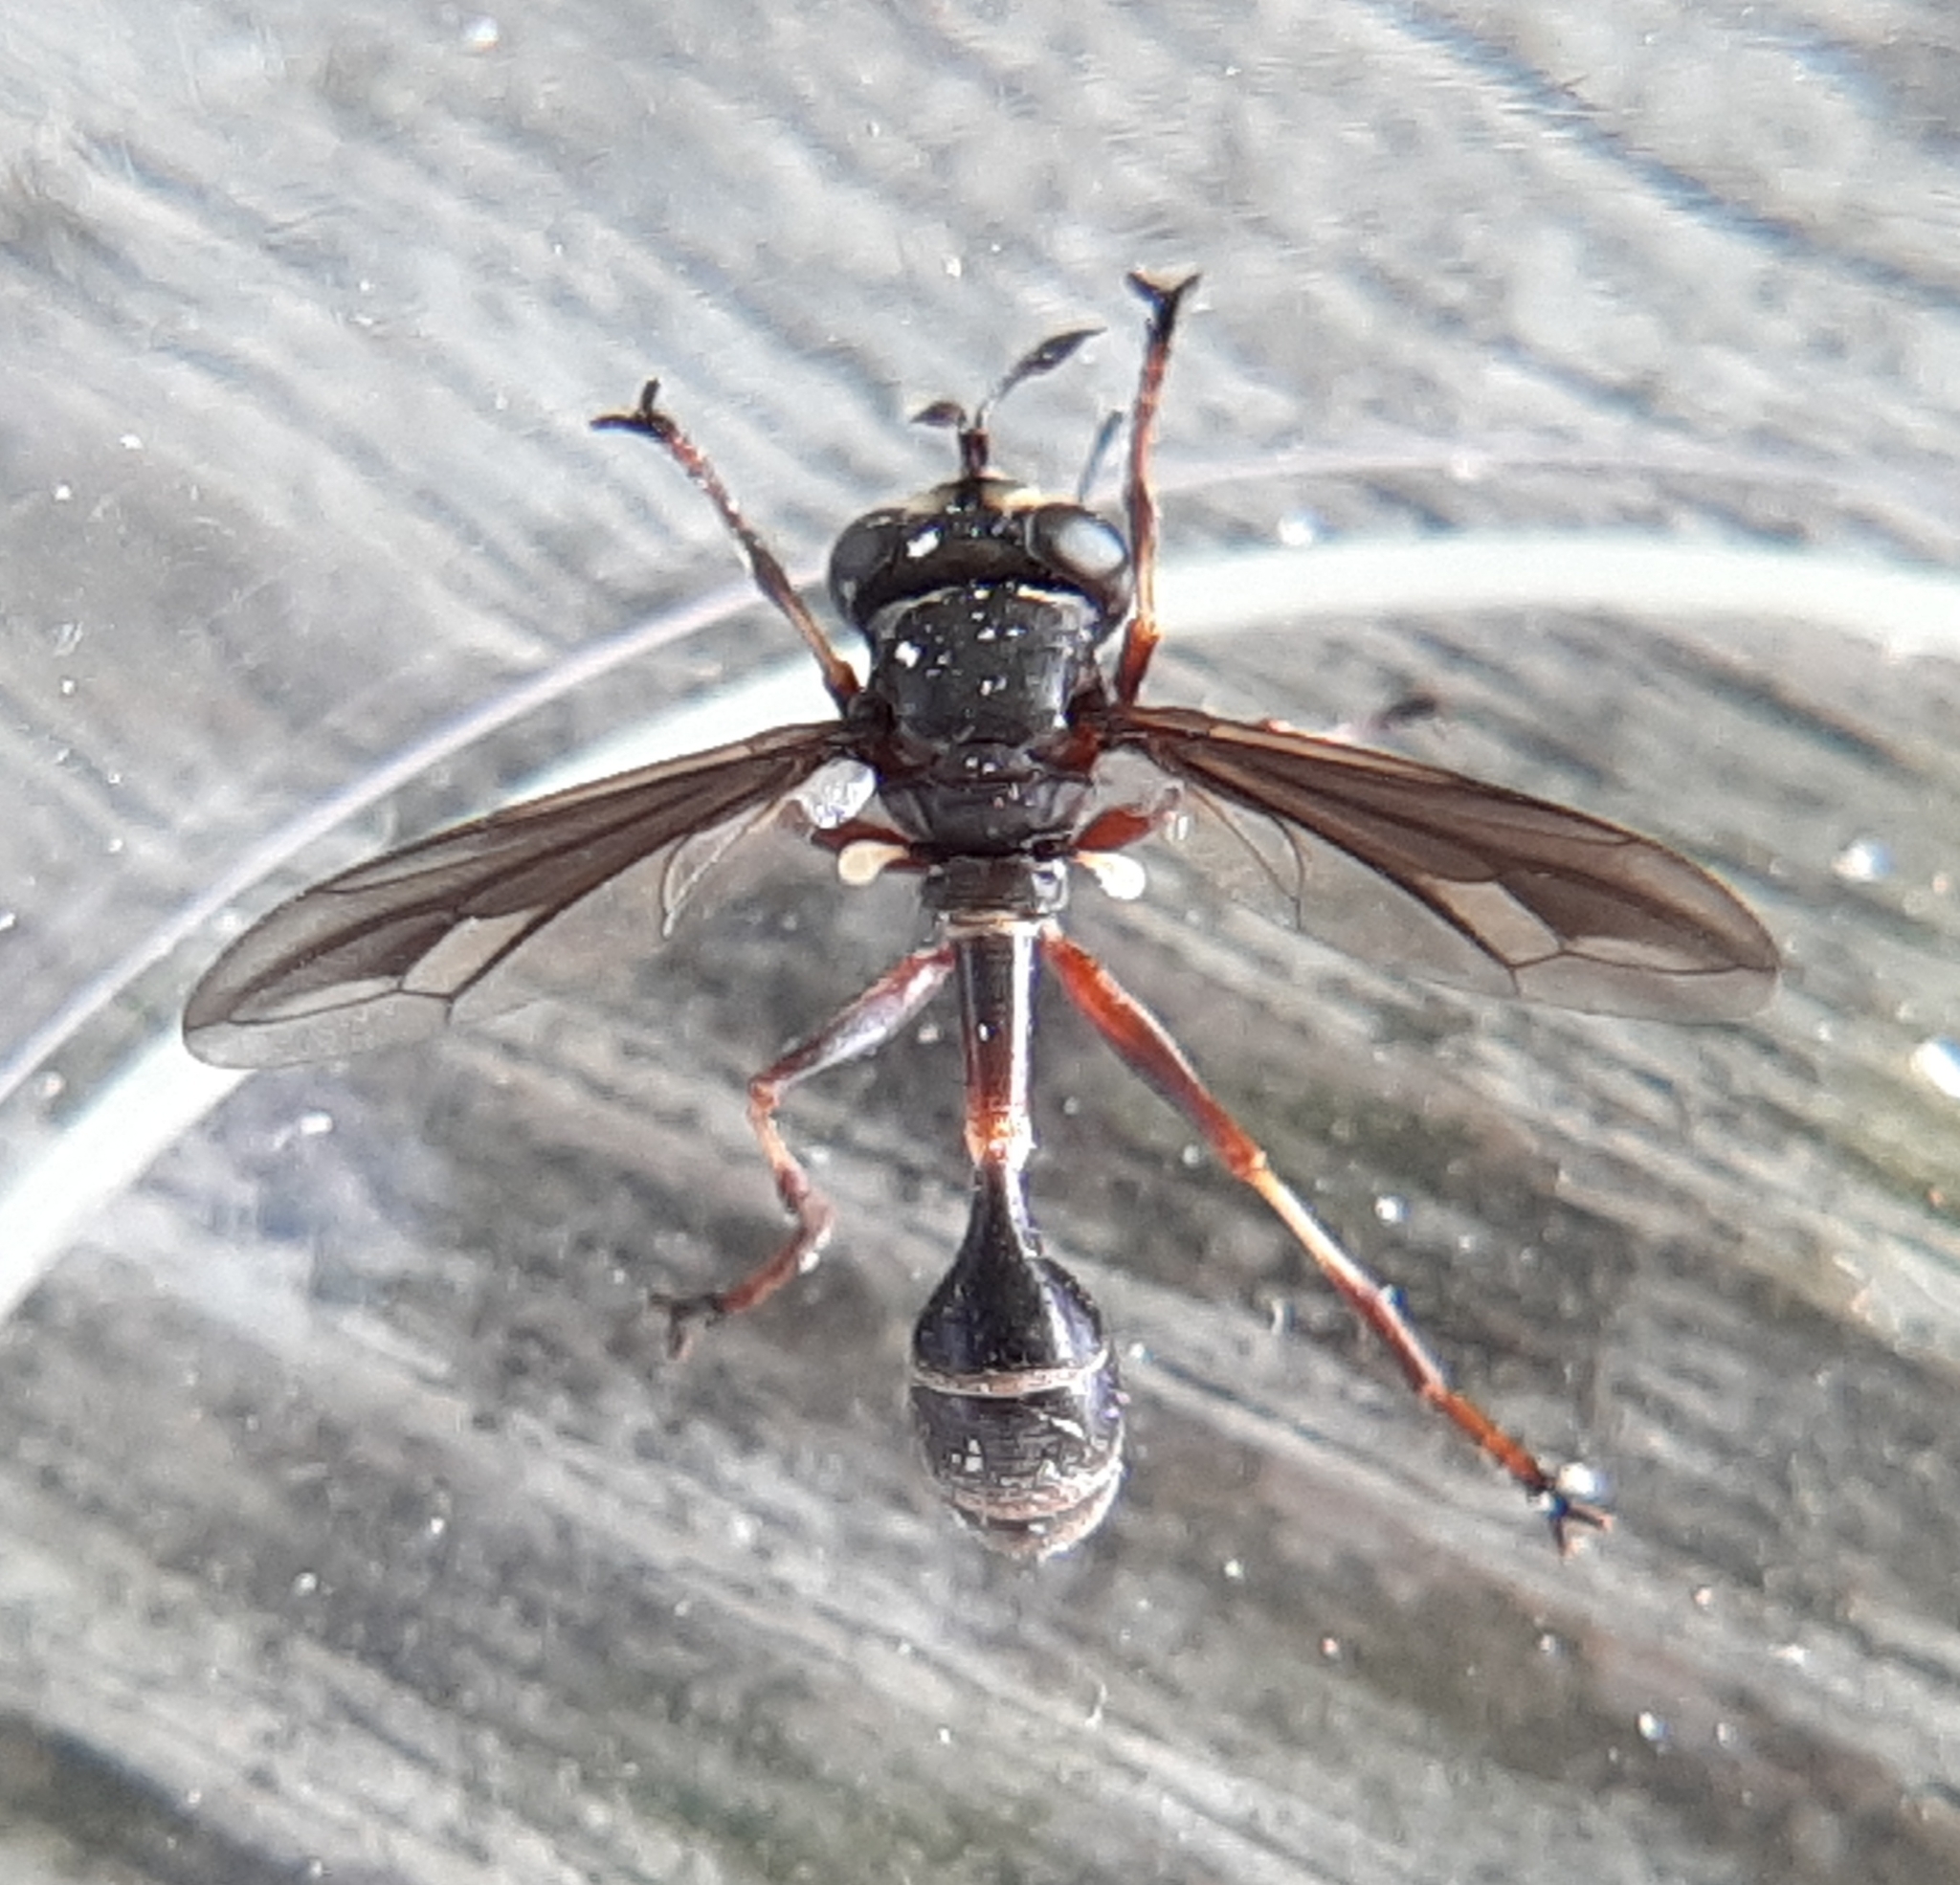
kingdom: Animalia
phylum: Arthropoda
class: Insecta
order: Diptera
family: Conopidae
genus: Physocephala
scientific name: Physocephala furcillata
